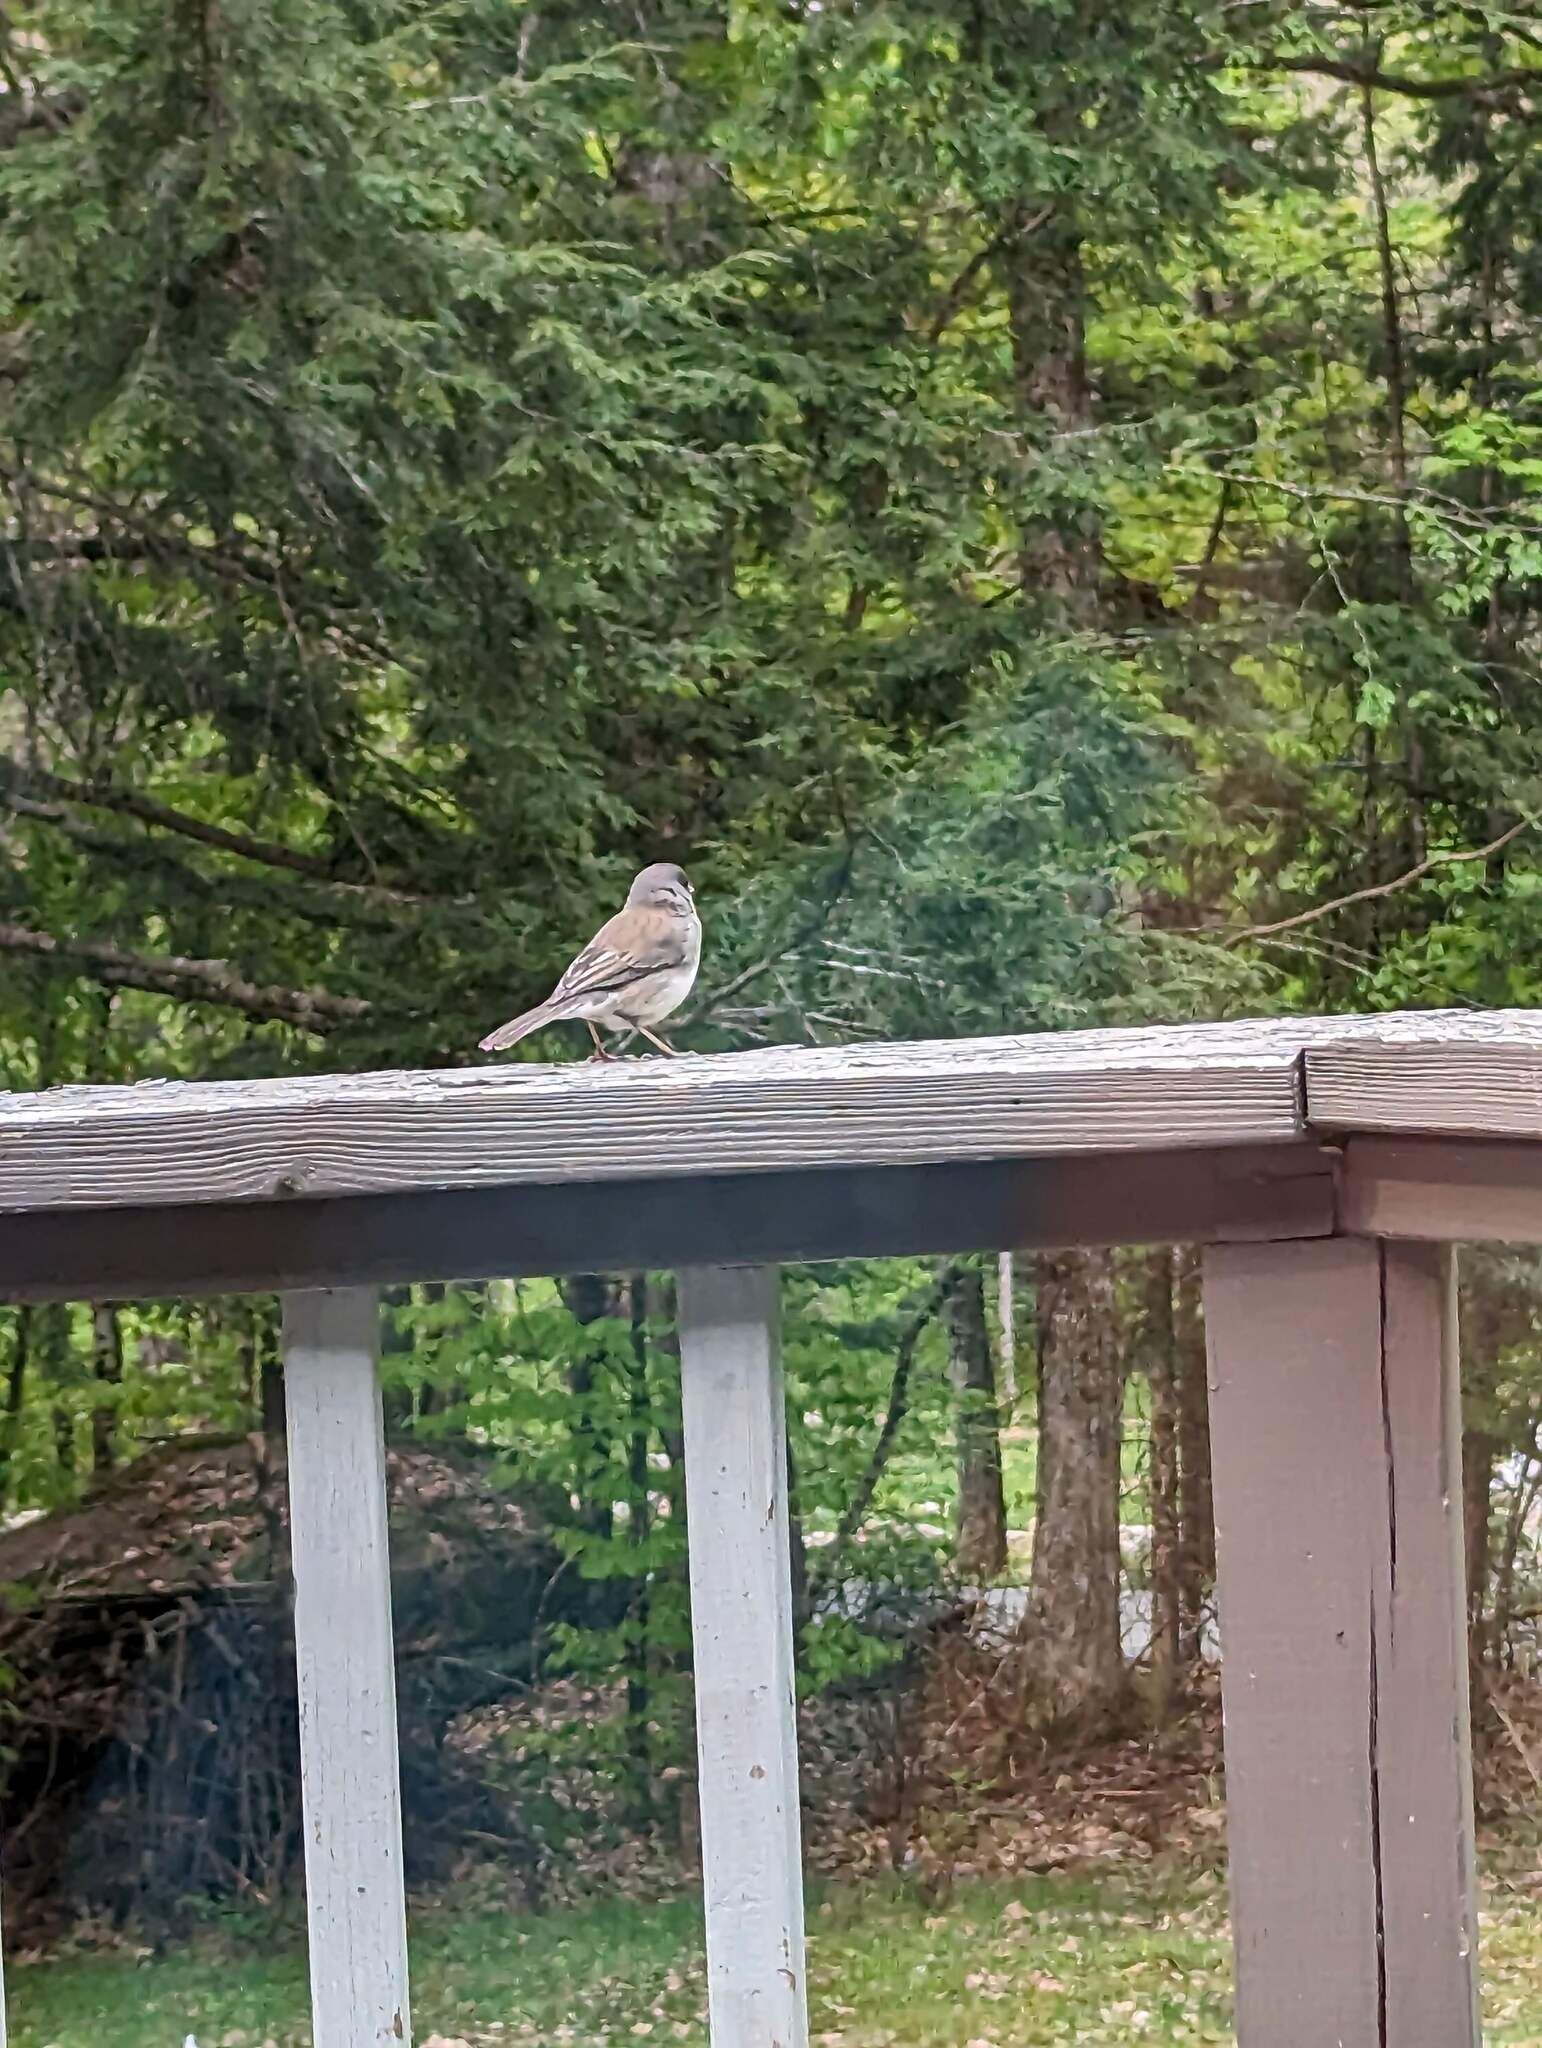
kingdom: Animalia
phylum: Chordata
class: Aves
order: Passeriformes
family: Passerellidae
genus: Junco
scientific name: Junco hyemalis
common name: Dark-eyed junco
